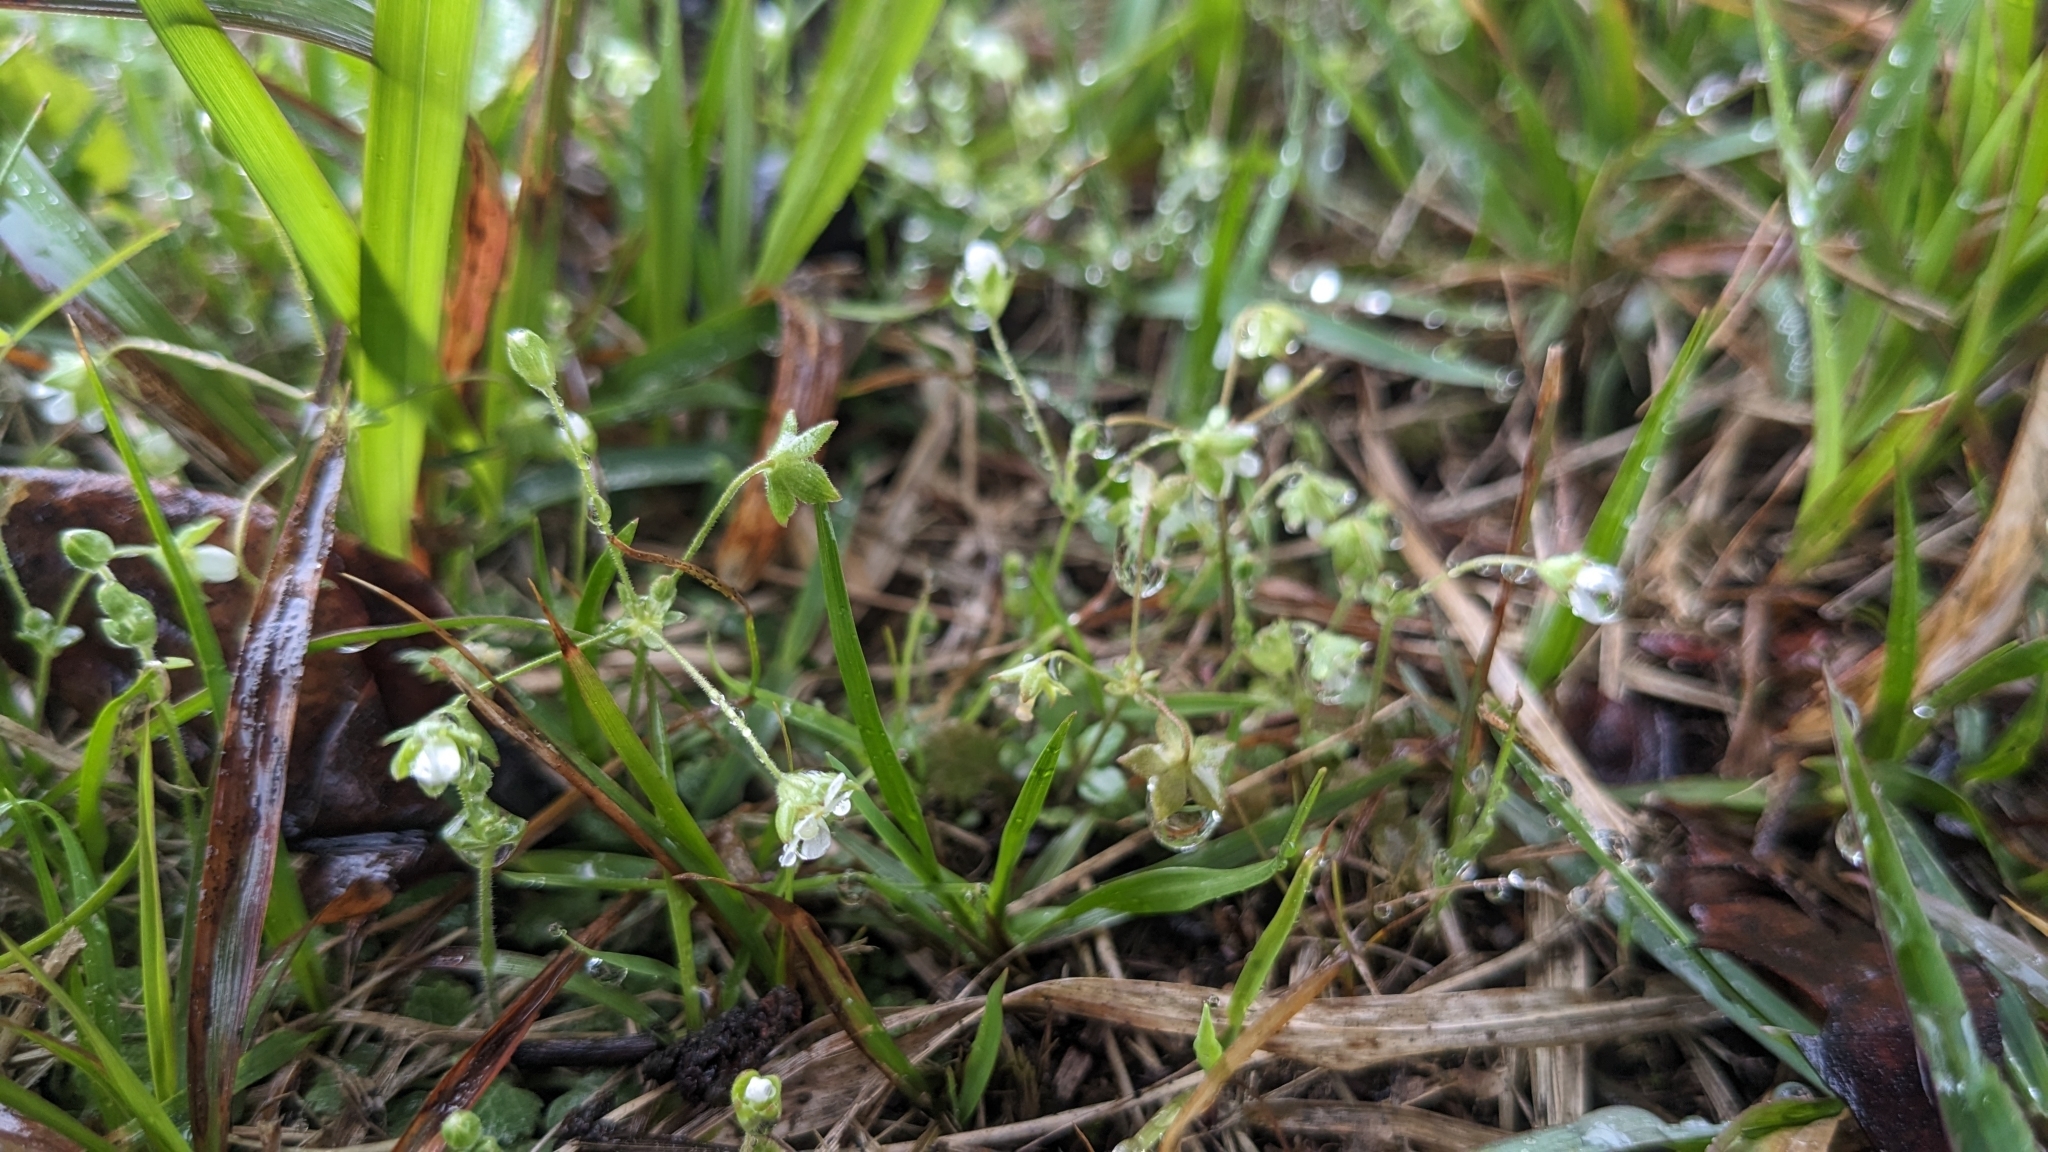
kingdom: Plantae
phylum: Tracheophyta
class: Magnoliopsida
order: Ericales
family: Primulaceae
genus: Androsace
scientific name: Androsace umbellata
